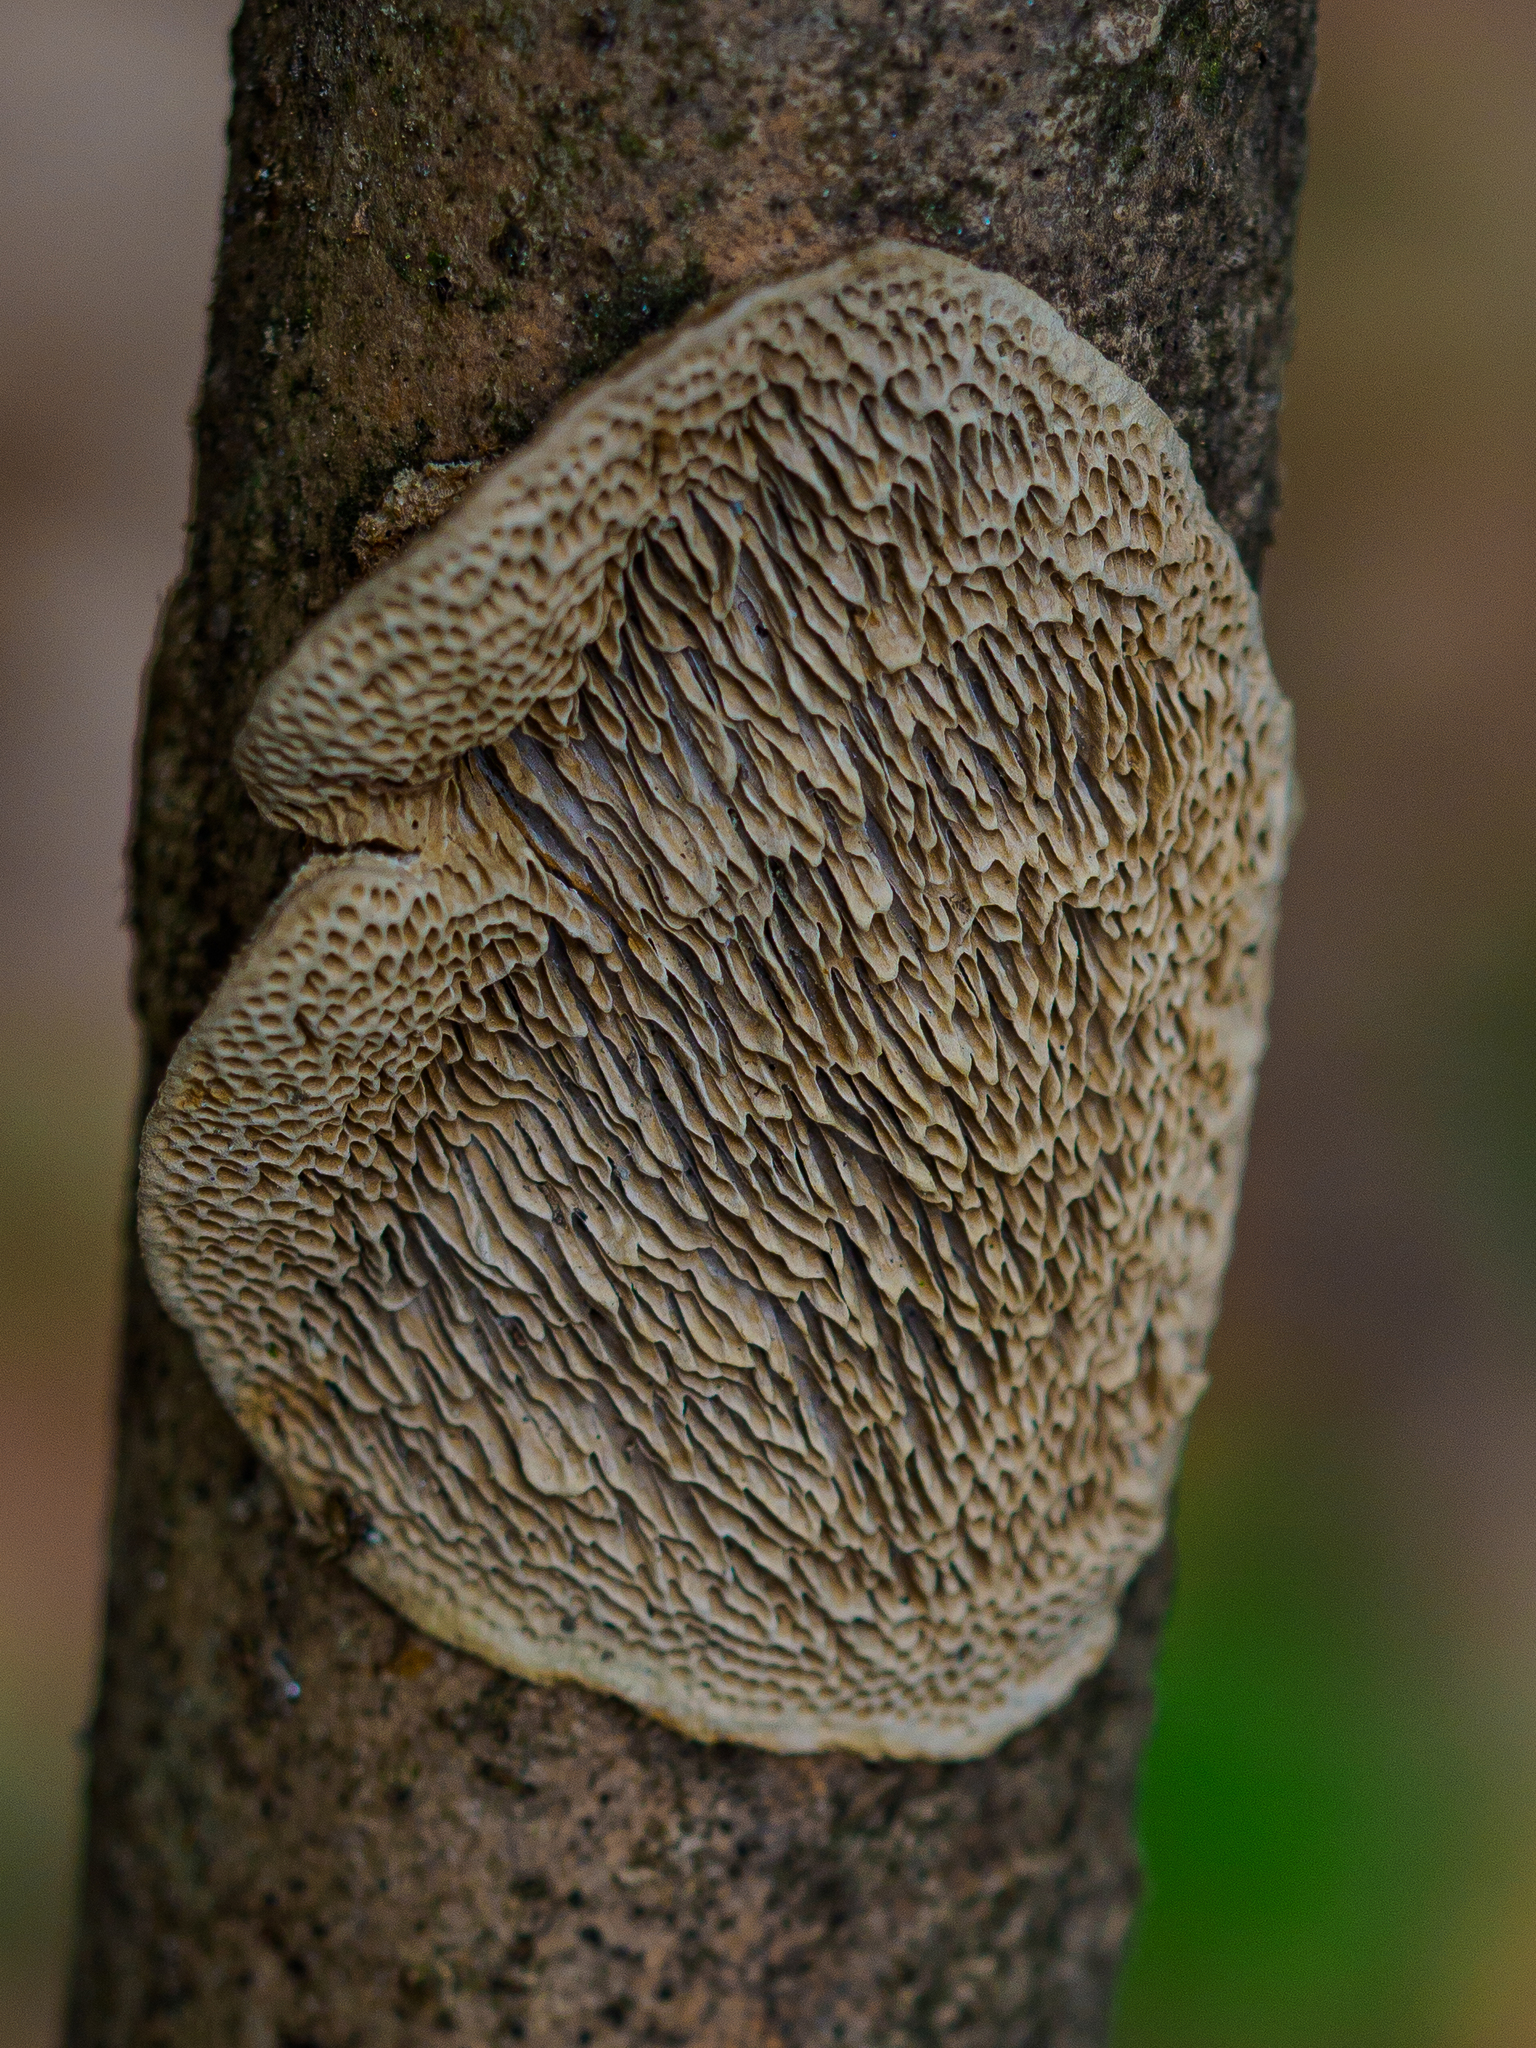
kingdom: Fungi
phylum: Basidiomycota
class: Agaricomycetes
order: Polyporales
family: Polyporaceae
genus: Coriolopsis
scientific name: Coriolopsis gallica
